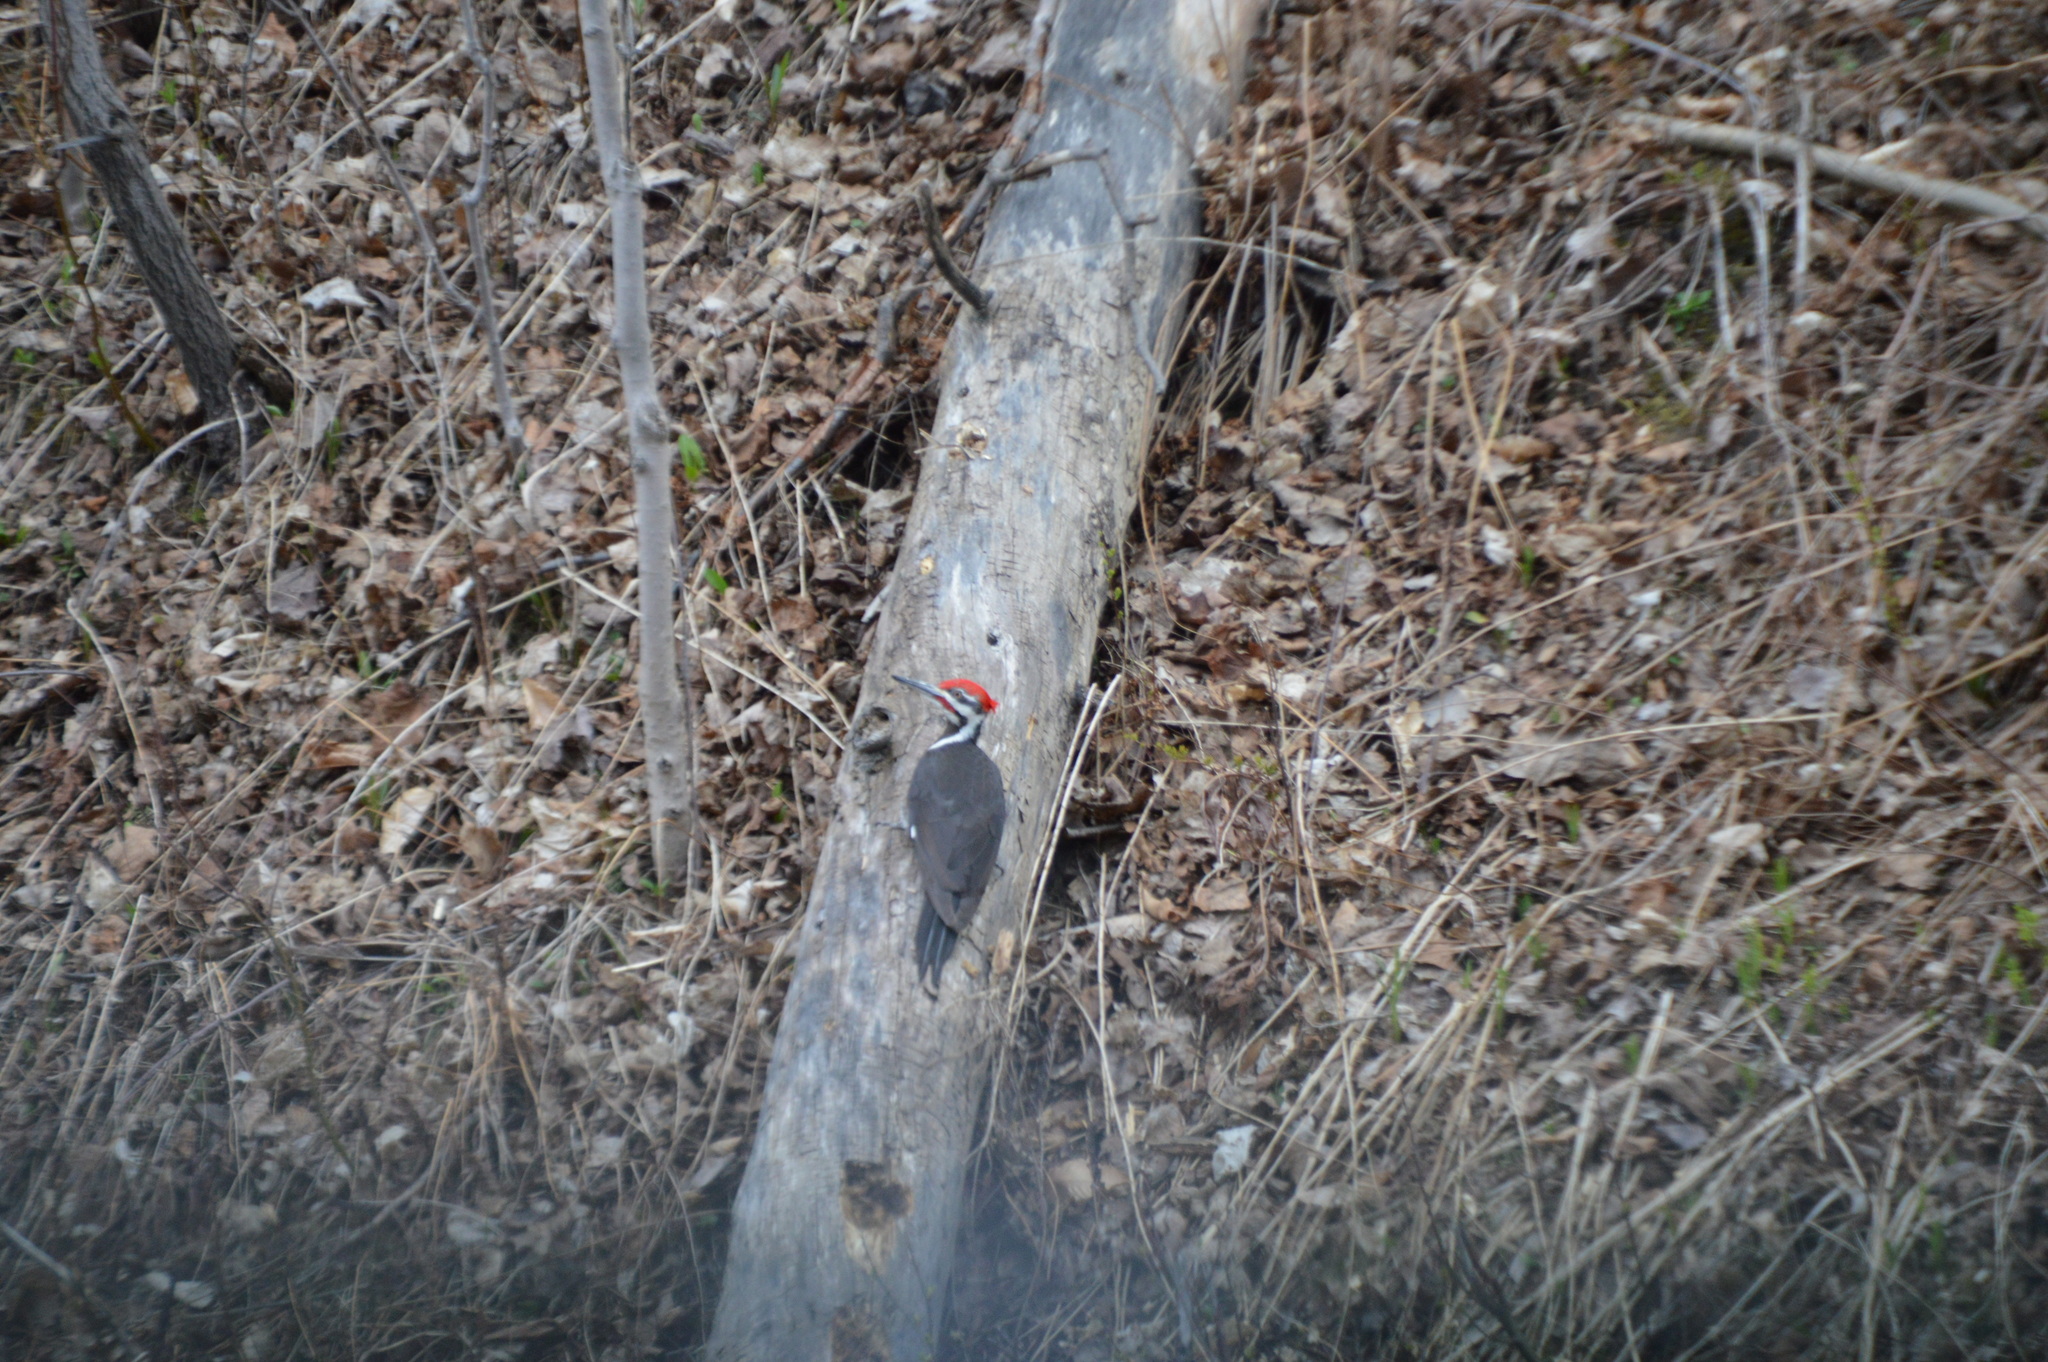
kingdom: Animalia
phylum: Chordata
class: Aves
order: Piciformes
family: Picidae
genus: Dryocopus
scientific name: Dryocopus pileatus
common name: Pileated woodpecker
